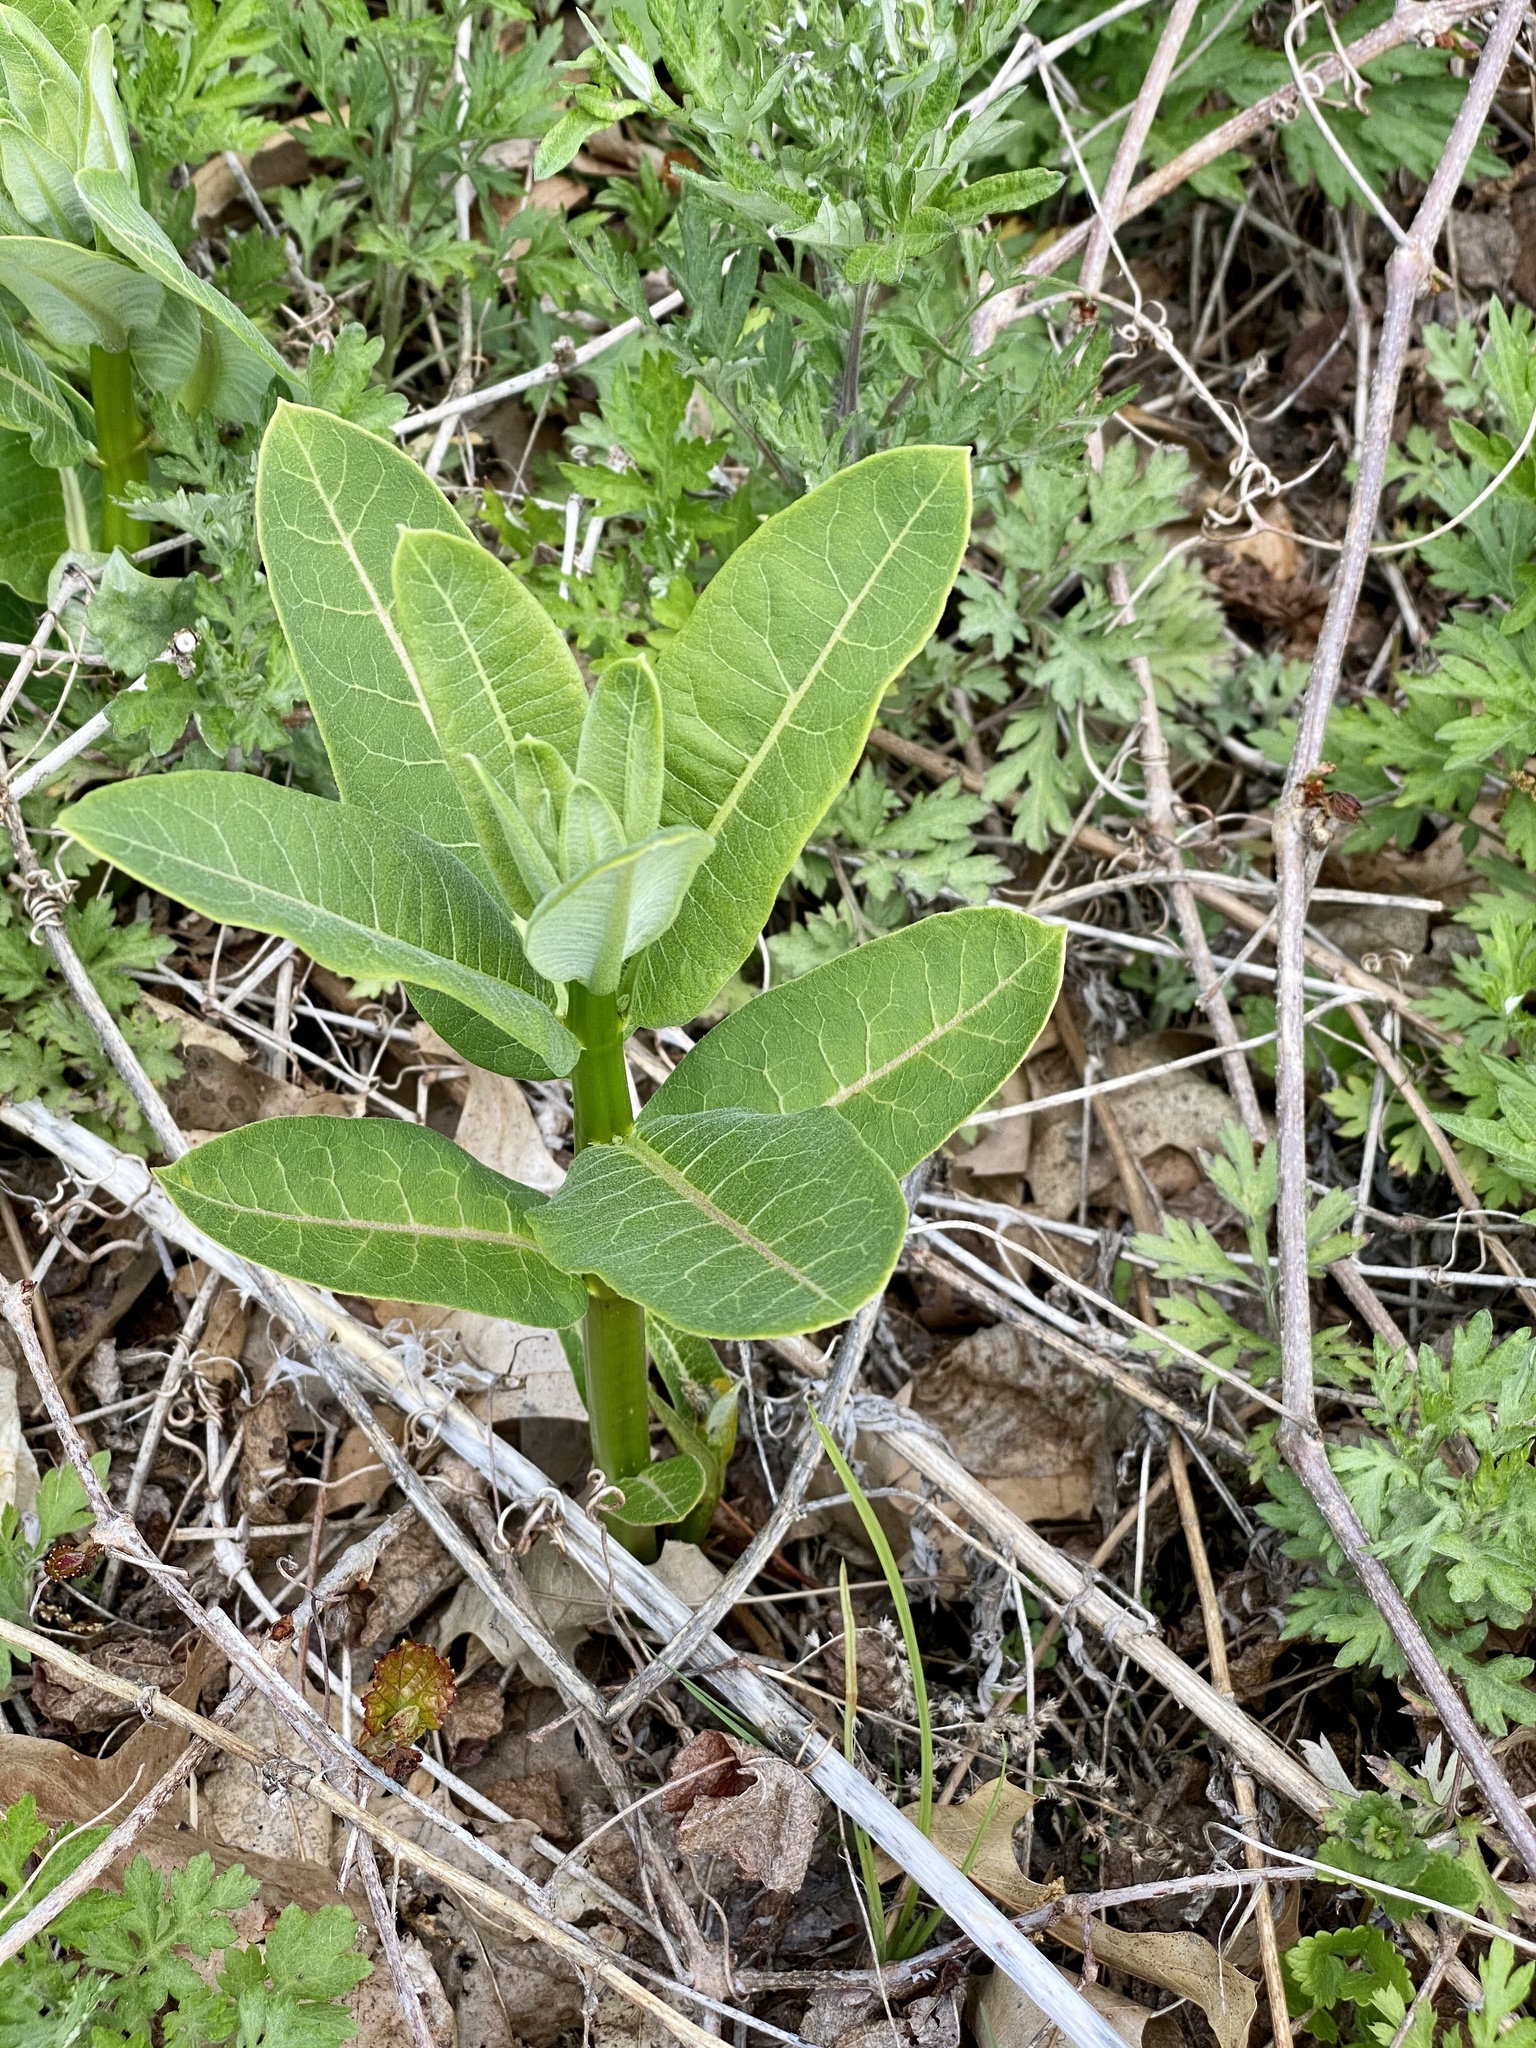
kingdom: Plantae
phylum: Tracheophyta
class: Magnoliopsida
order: Gentianales
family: Apocynaceae
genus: Asclepias
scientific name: Asclepias syriaca
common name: Common milkweed
